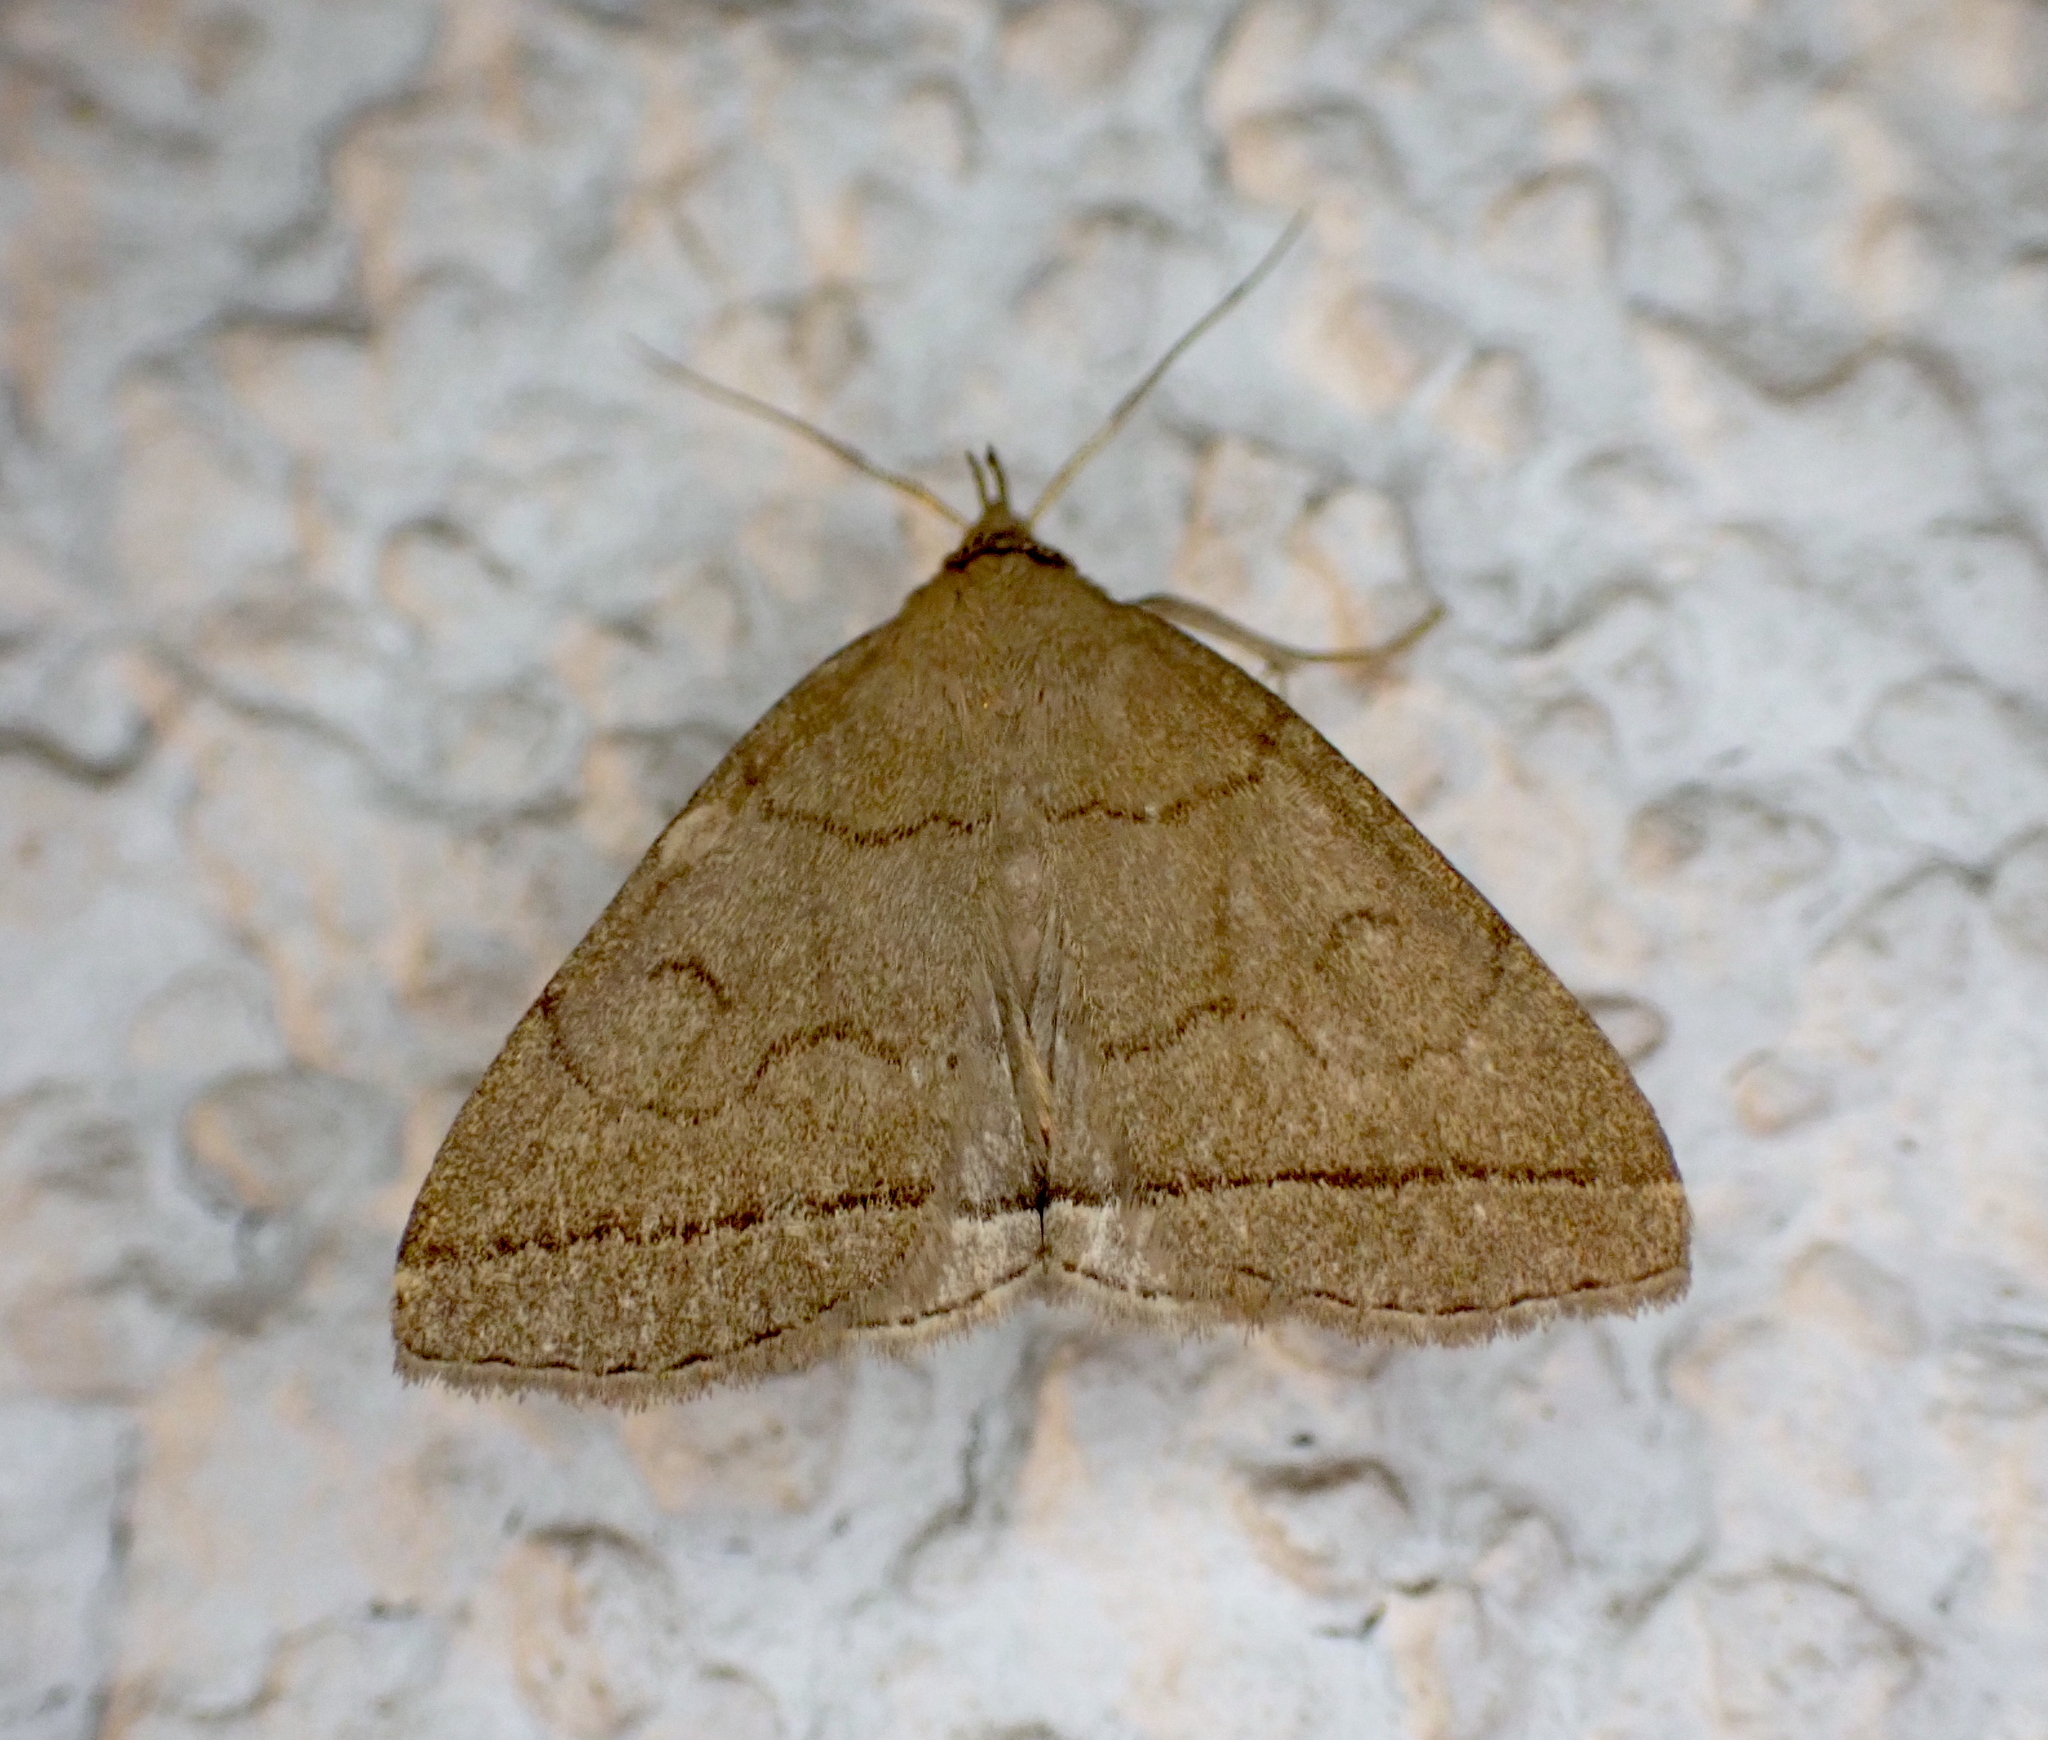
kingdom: Animalia
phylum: Arthropoda
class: Insecta
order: Lepidoptera
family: Erebidae
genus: Herminia
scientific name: Herminia tarsipennalis
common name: Fan-foot
